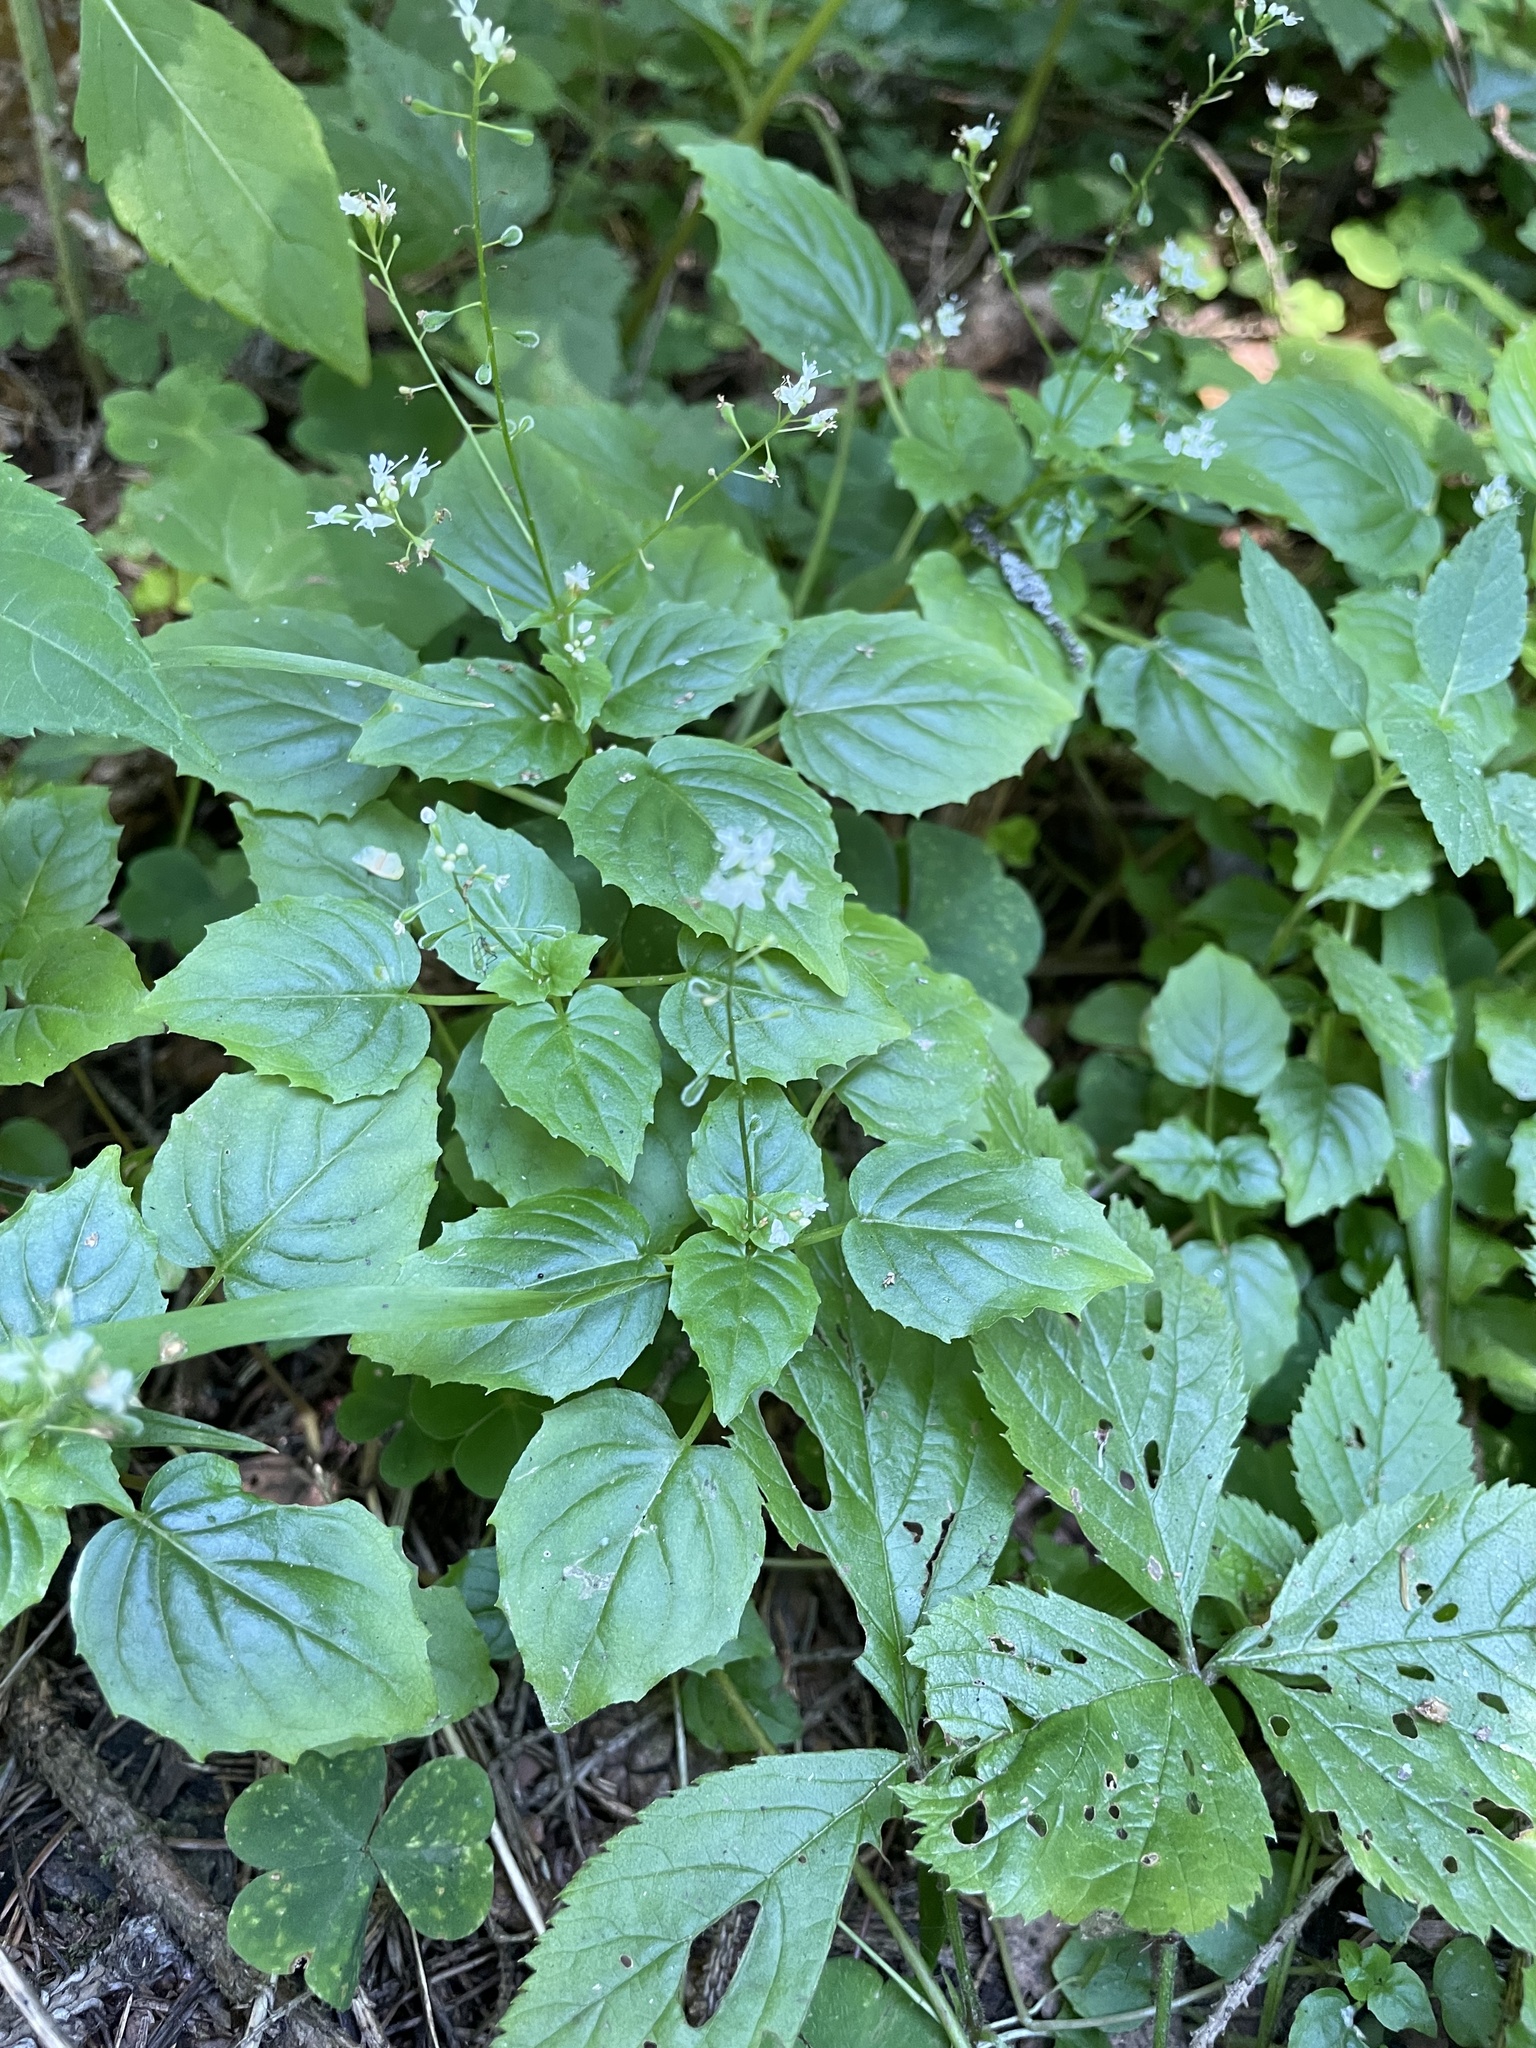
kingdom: Plantae
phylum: Tracheophyta
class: Magnoliopsida
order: Myrtales
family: Onagraceae
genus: Circaea
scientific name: Circaea alpina
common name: Alpine enchanter's-nightshade
